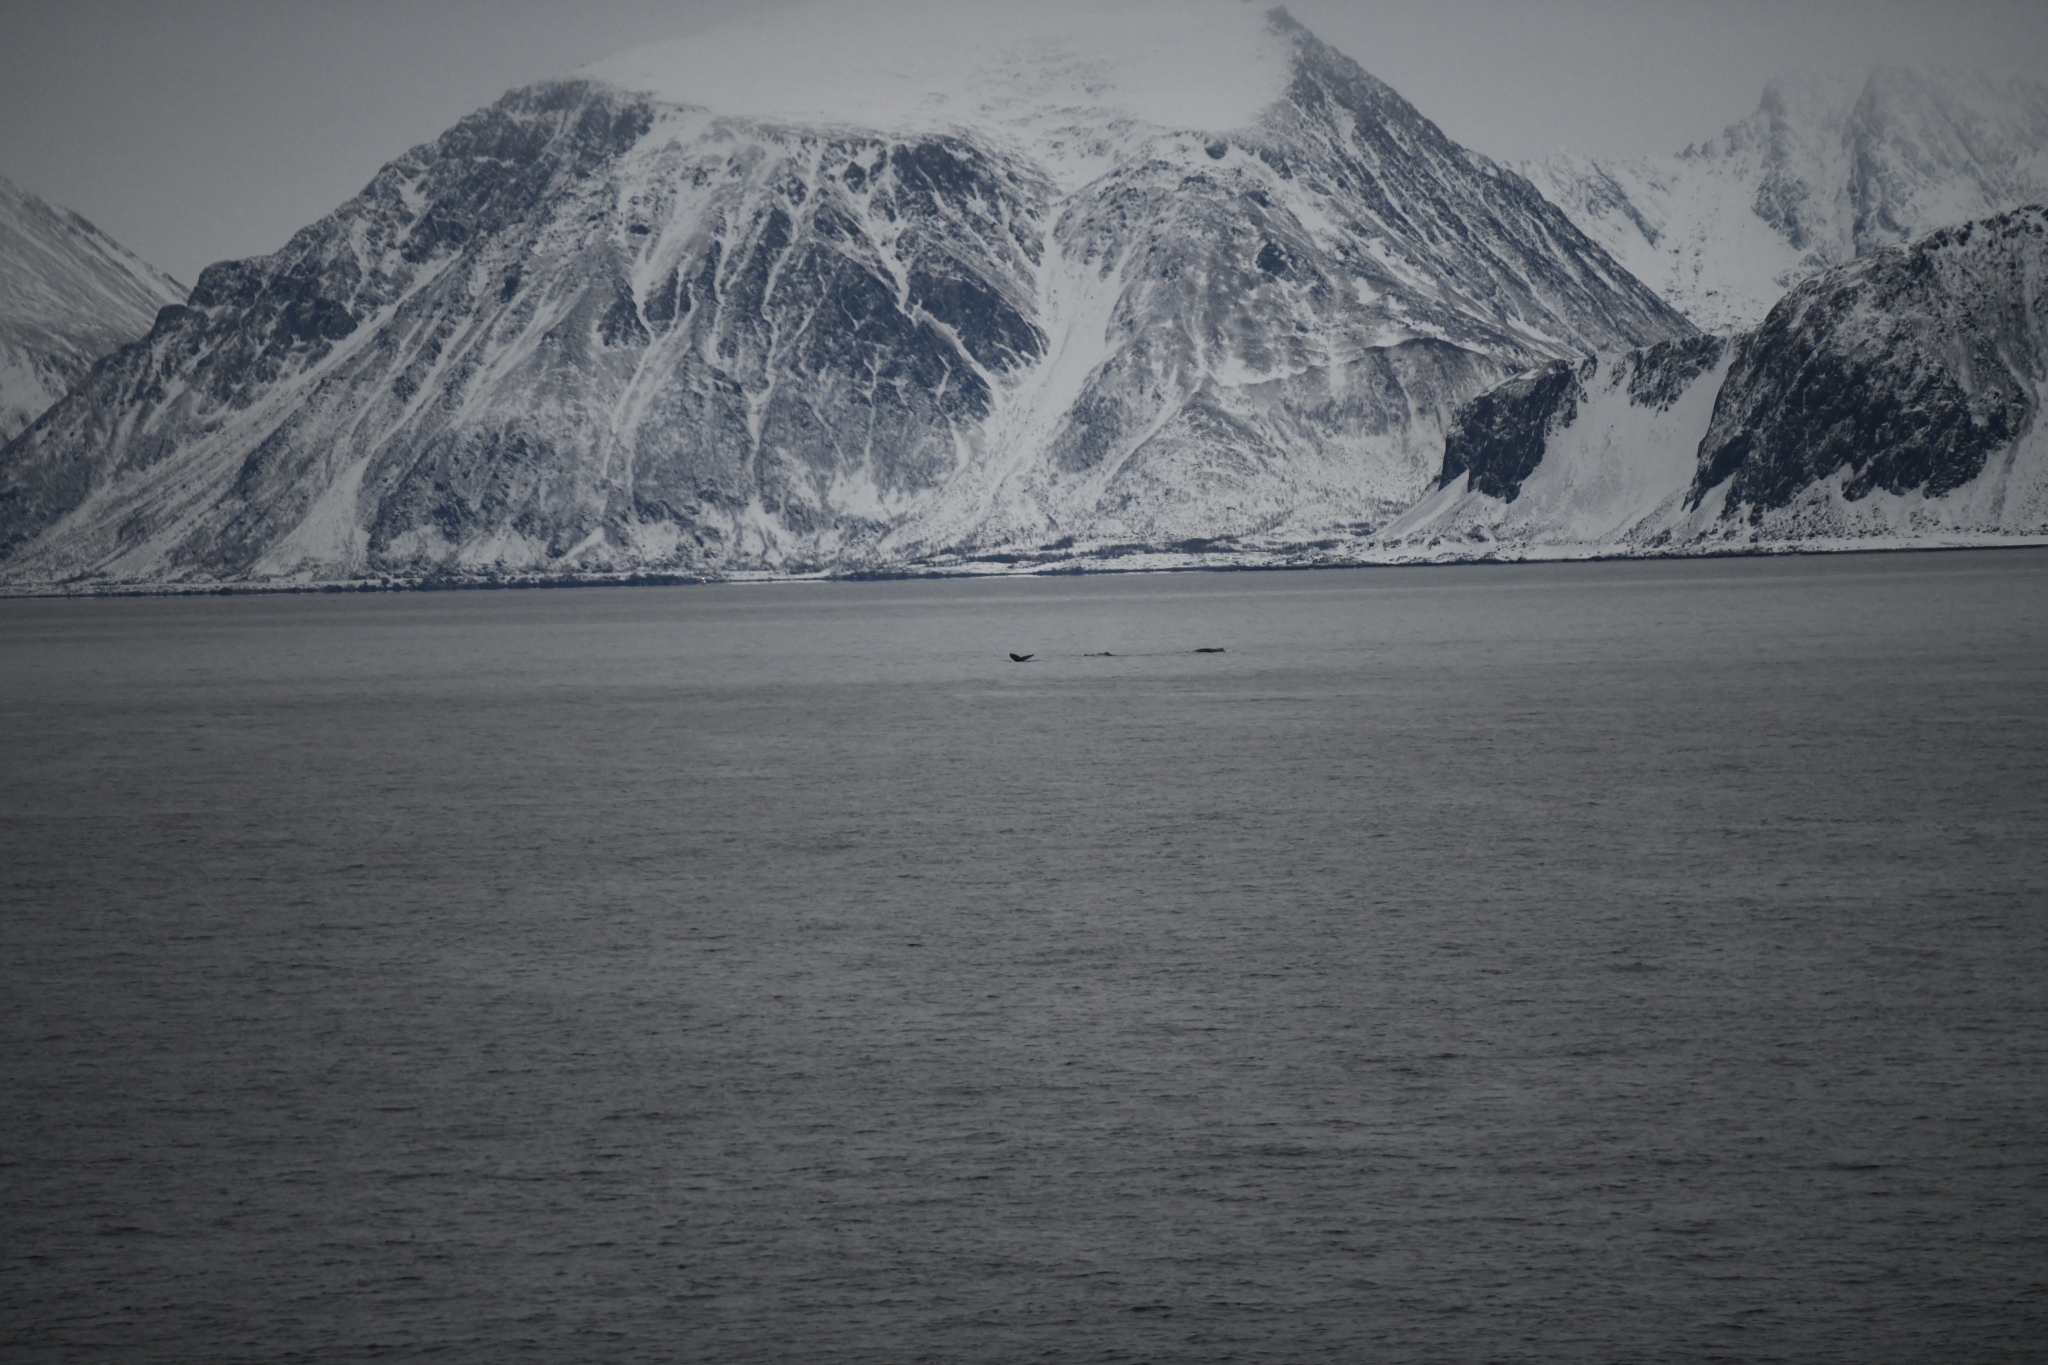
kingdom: Animalia
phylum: Chordata
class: Mammalia
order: Cetacea
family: Balaenopteridae
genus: Megaptera
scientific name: Megaptera novaeangliae
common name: Humpback whale
